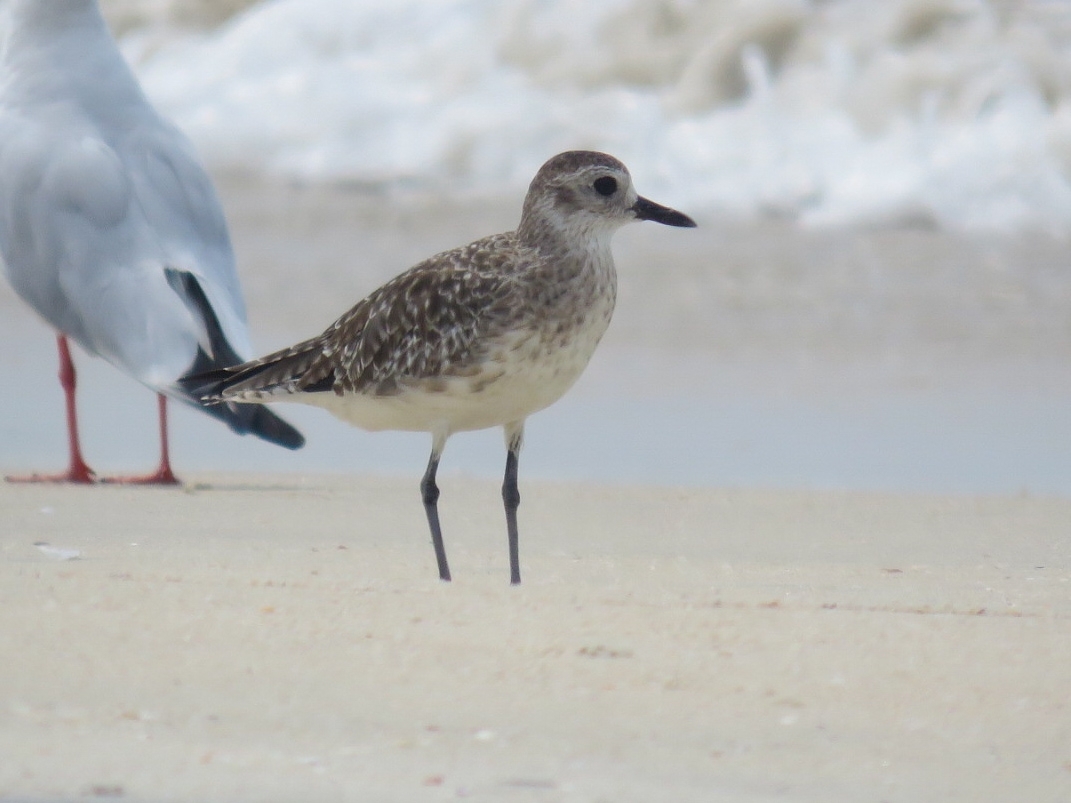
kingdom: Animalia
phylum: Chordata
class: Aves
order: Charadriiformes
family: Charadriidae
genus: Pluvialis
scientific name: Pluvialis squatarola
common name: Grey plover
